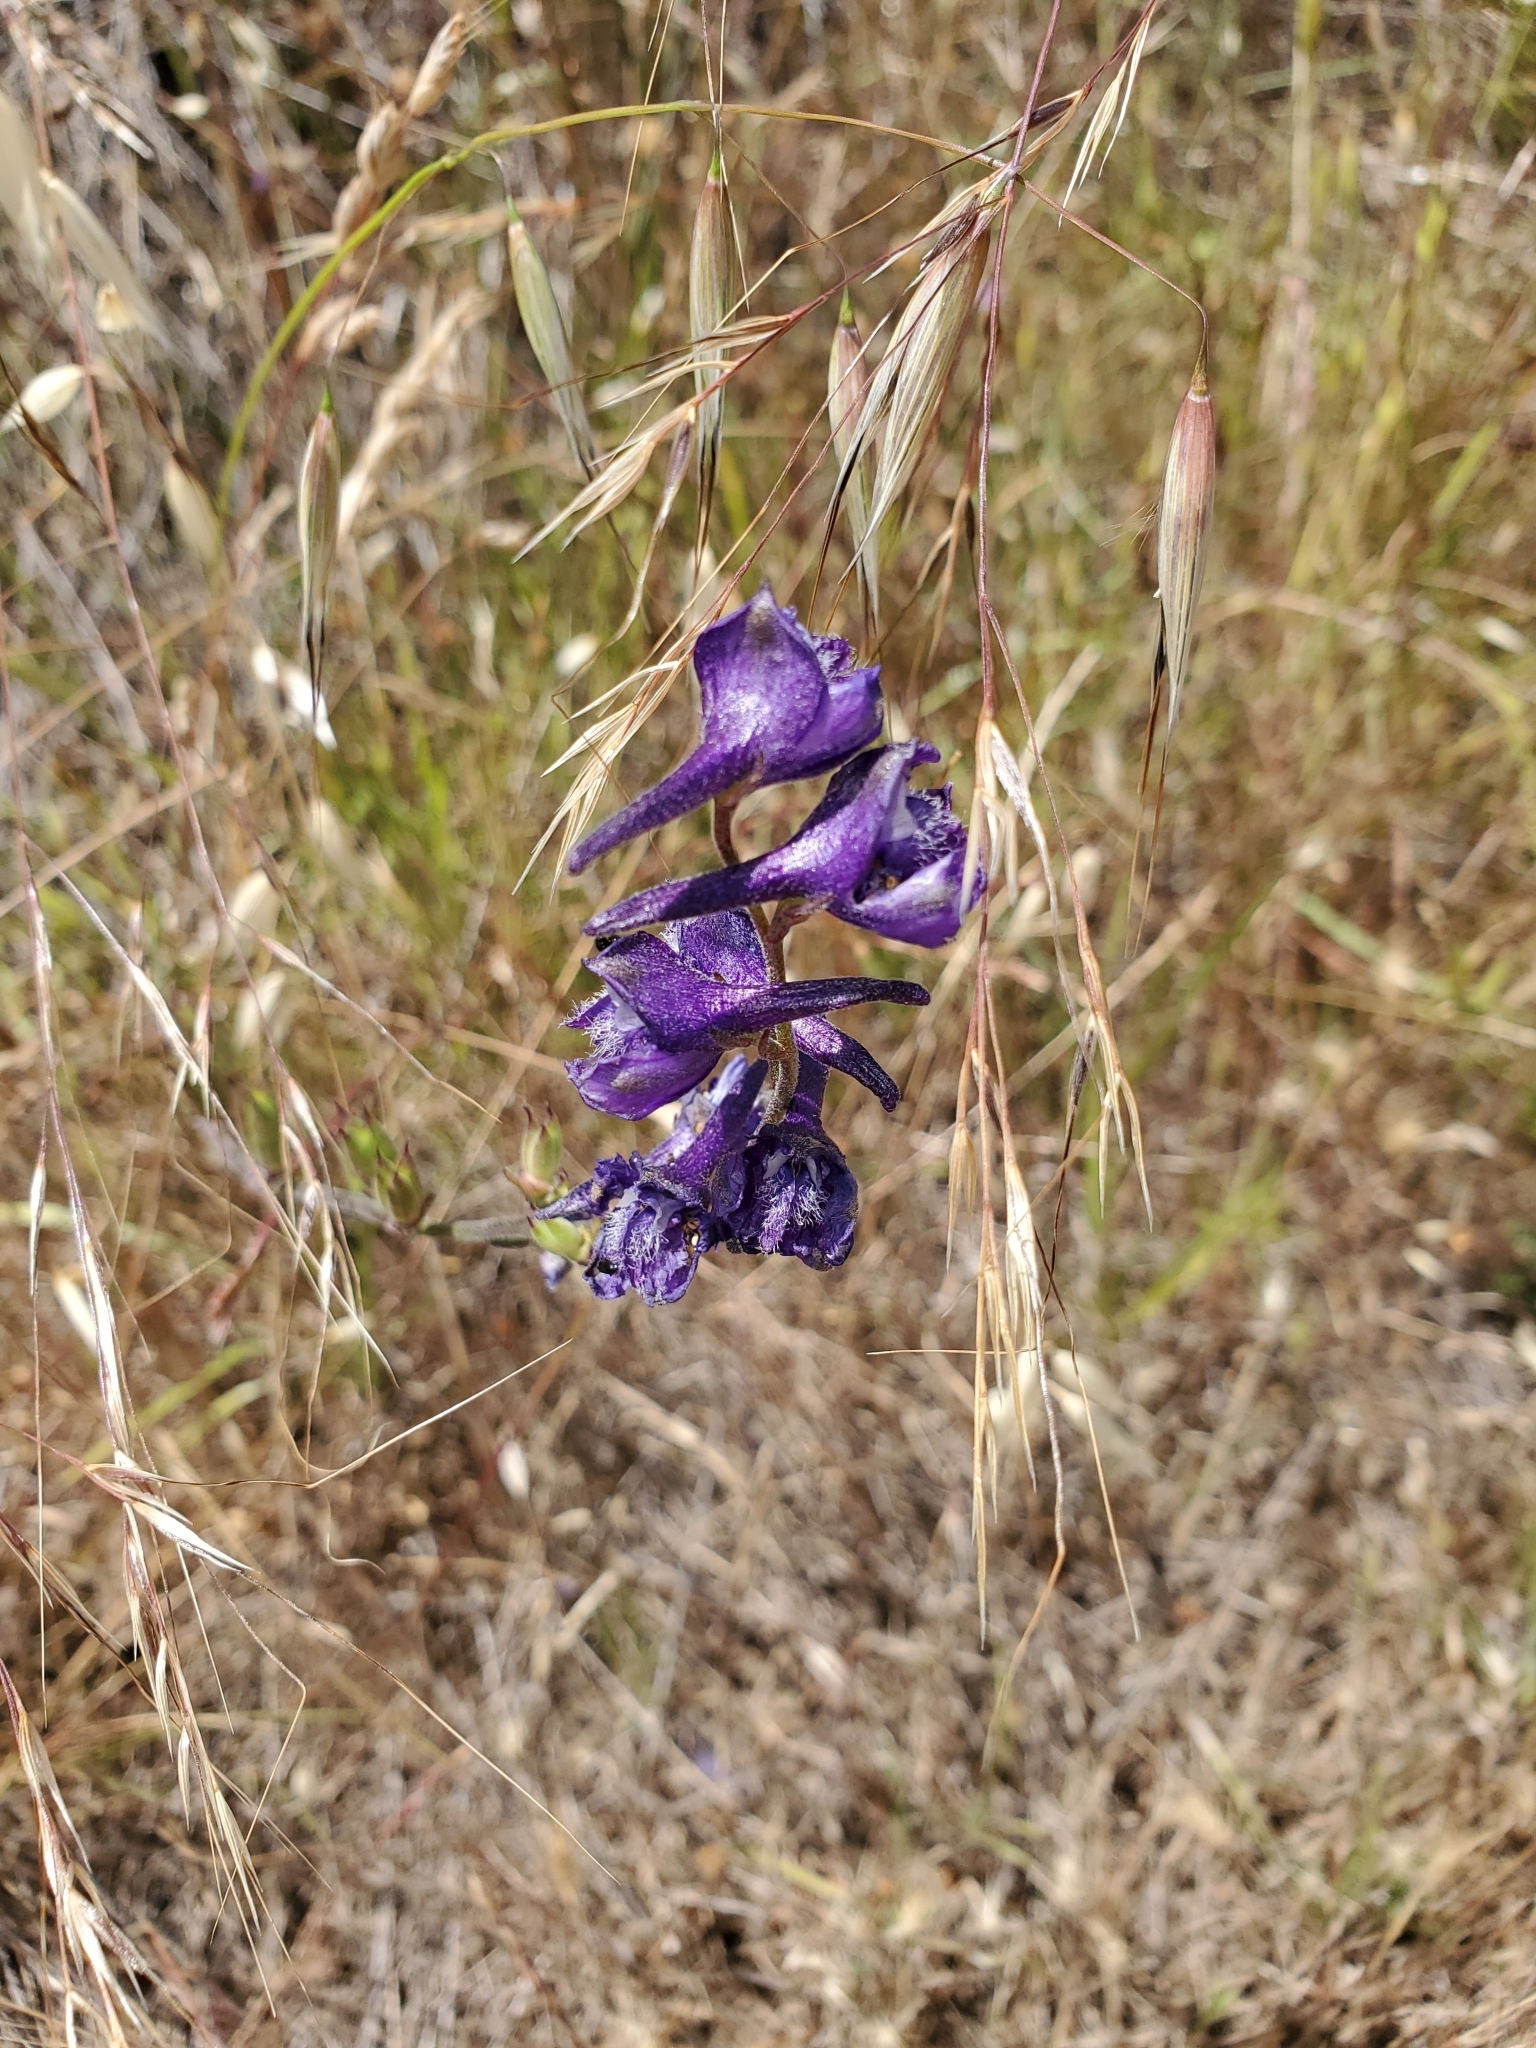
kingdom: Plantae
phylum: Tracheophyta
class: Magnoliopsida
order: Ranunculales
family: Ranunculaceae
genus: Delphinium
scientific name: Delphinium hesperium
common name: Western larkspur
